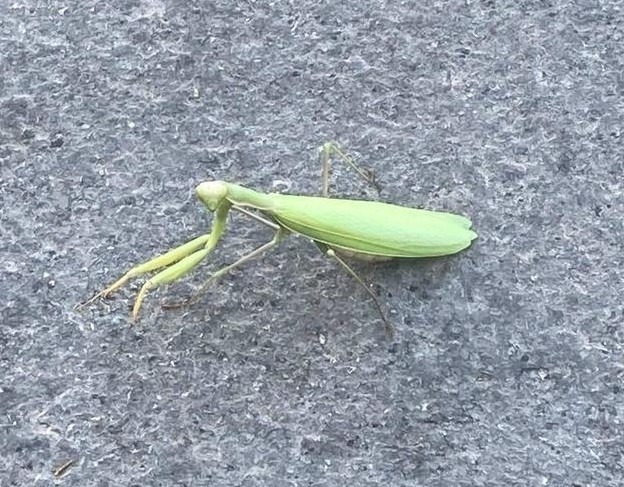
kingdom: Animalia
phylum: Arthropoda
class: Insecta
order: Mantodea
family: Mantidae
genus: Mantis
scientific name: Mantis religiosa
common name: Praying mantis
